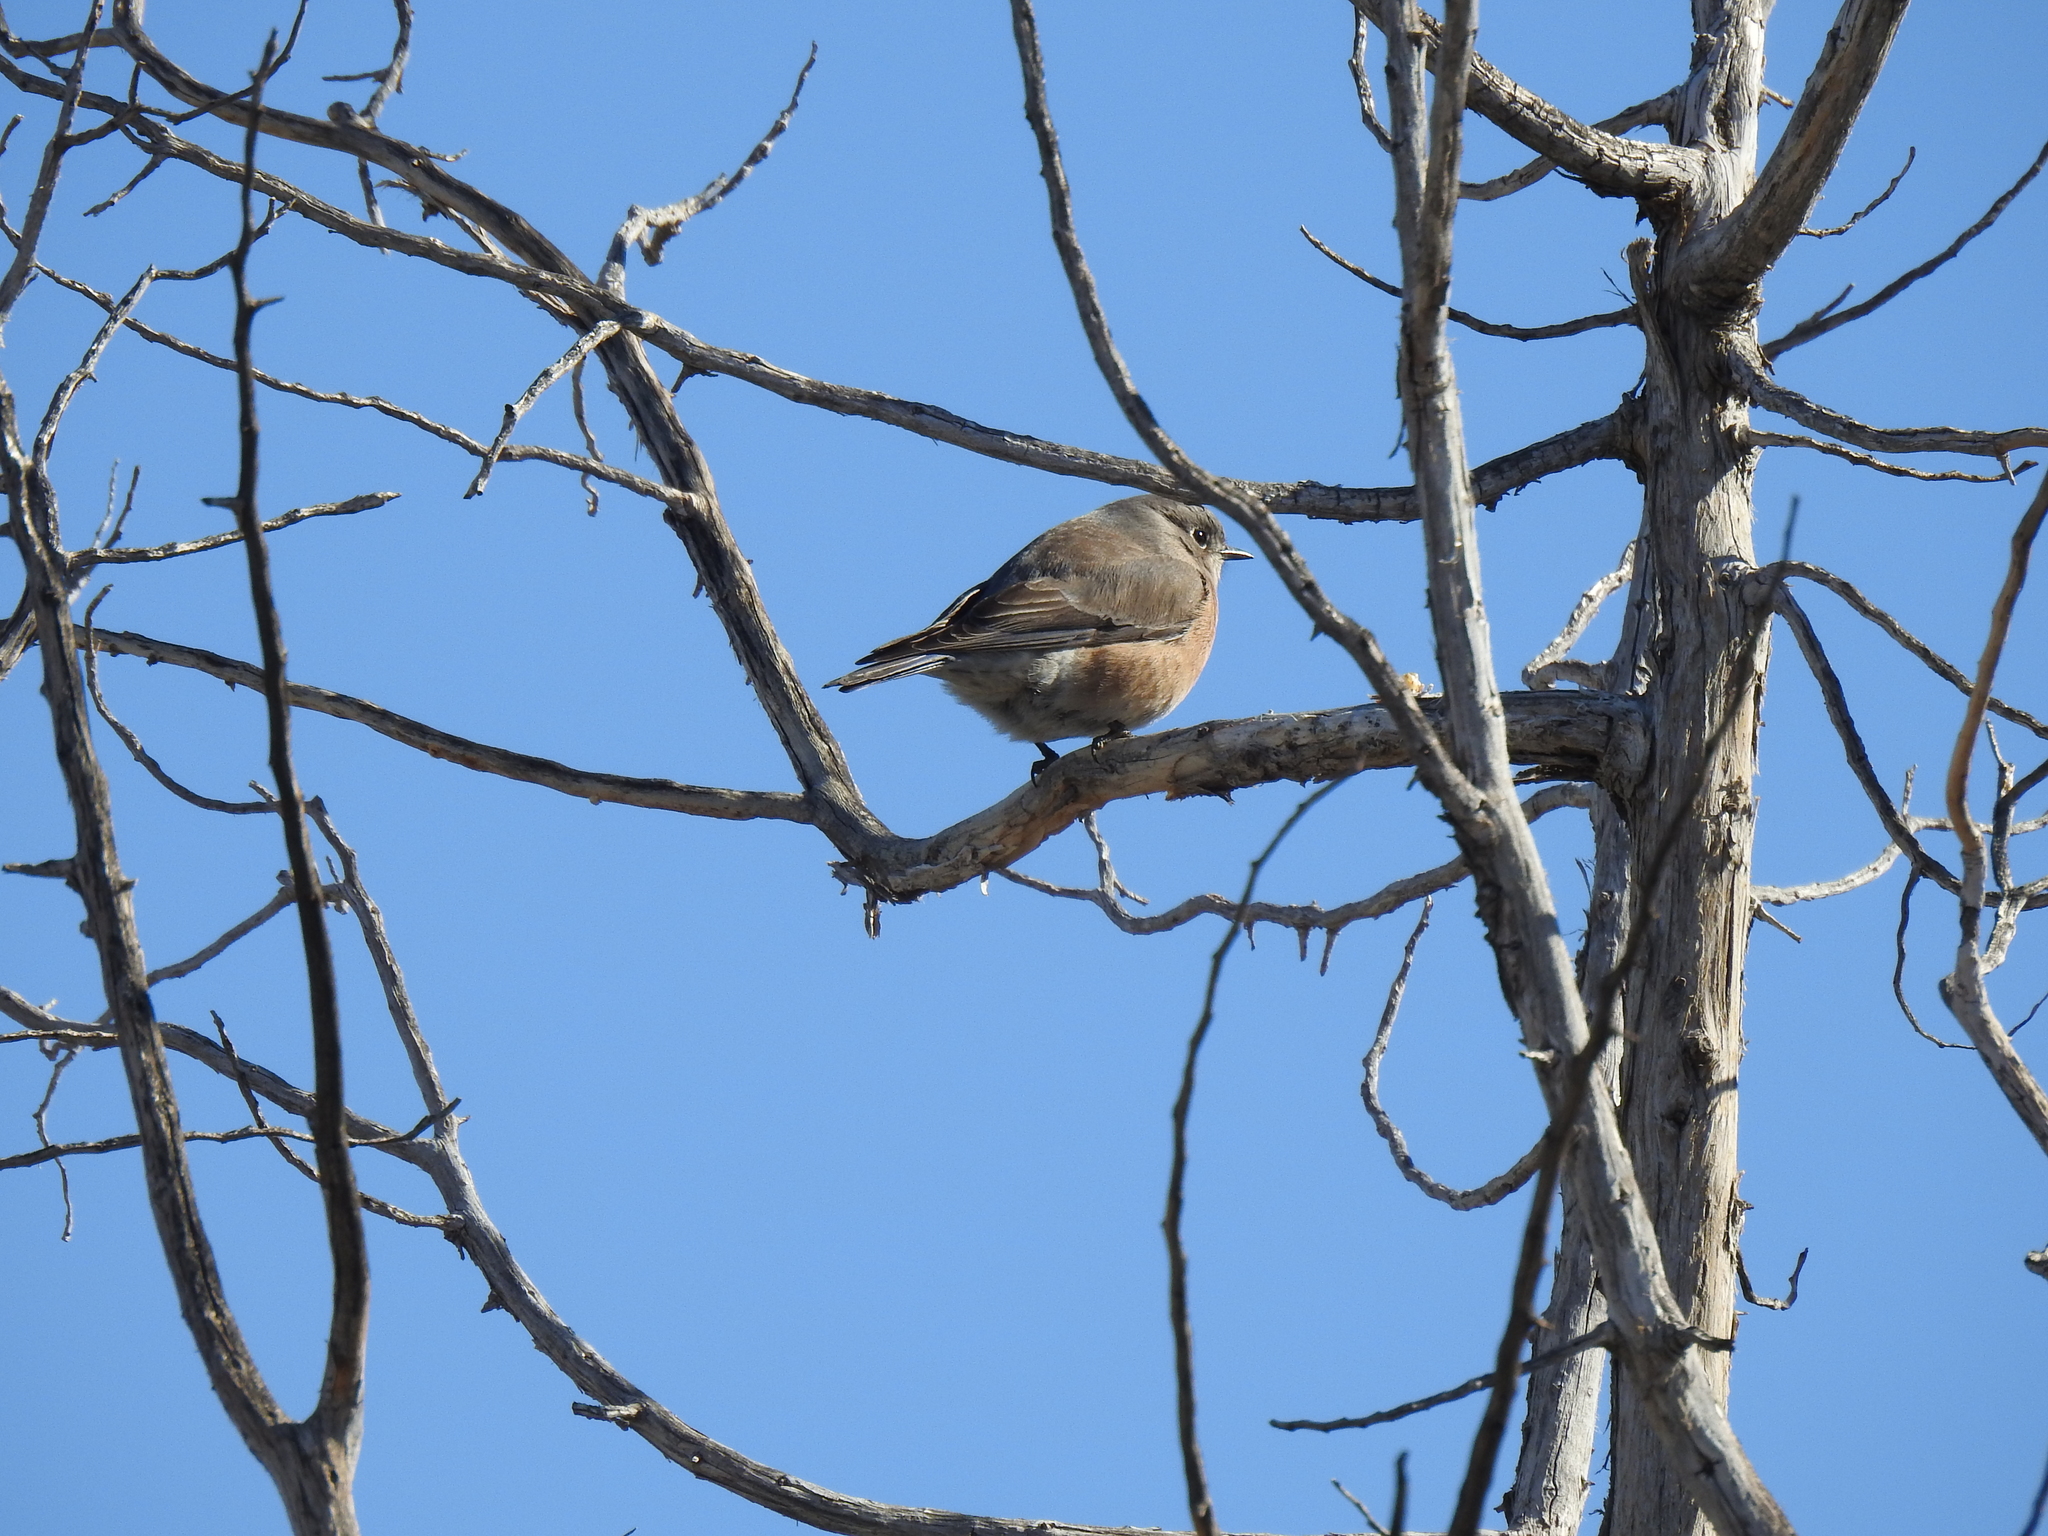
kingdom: Animalia
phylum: Chordata
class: Aves
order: Passeriformes
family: Turdidae
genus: Sialia
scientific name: Sialia mexicana
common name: Western bluebird
